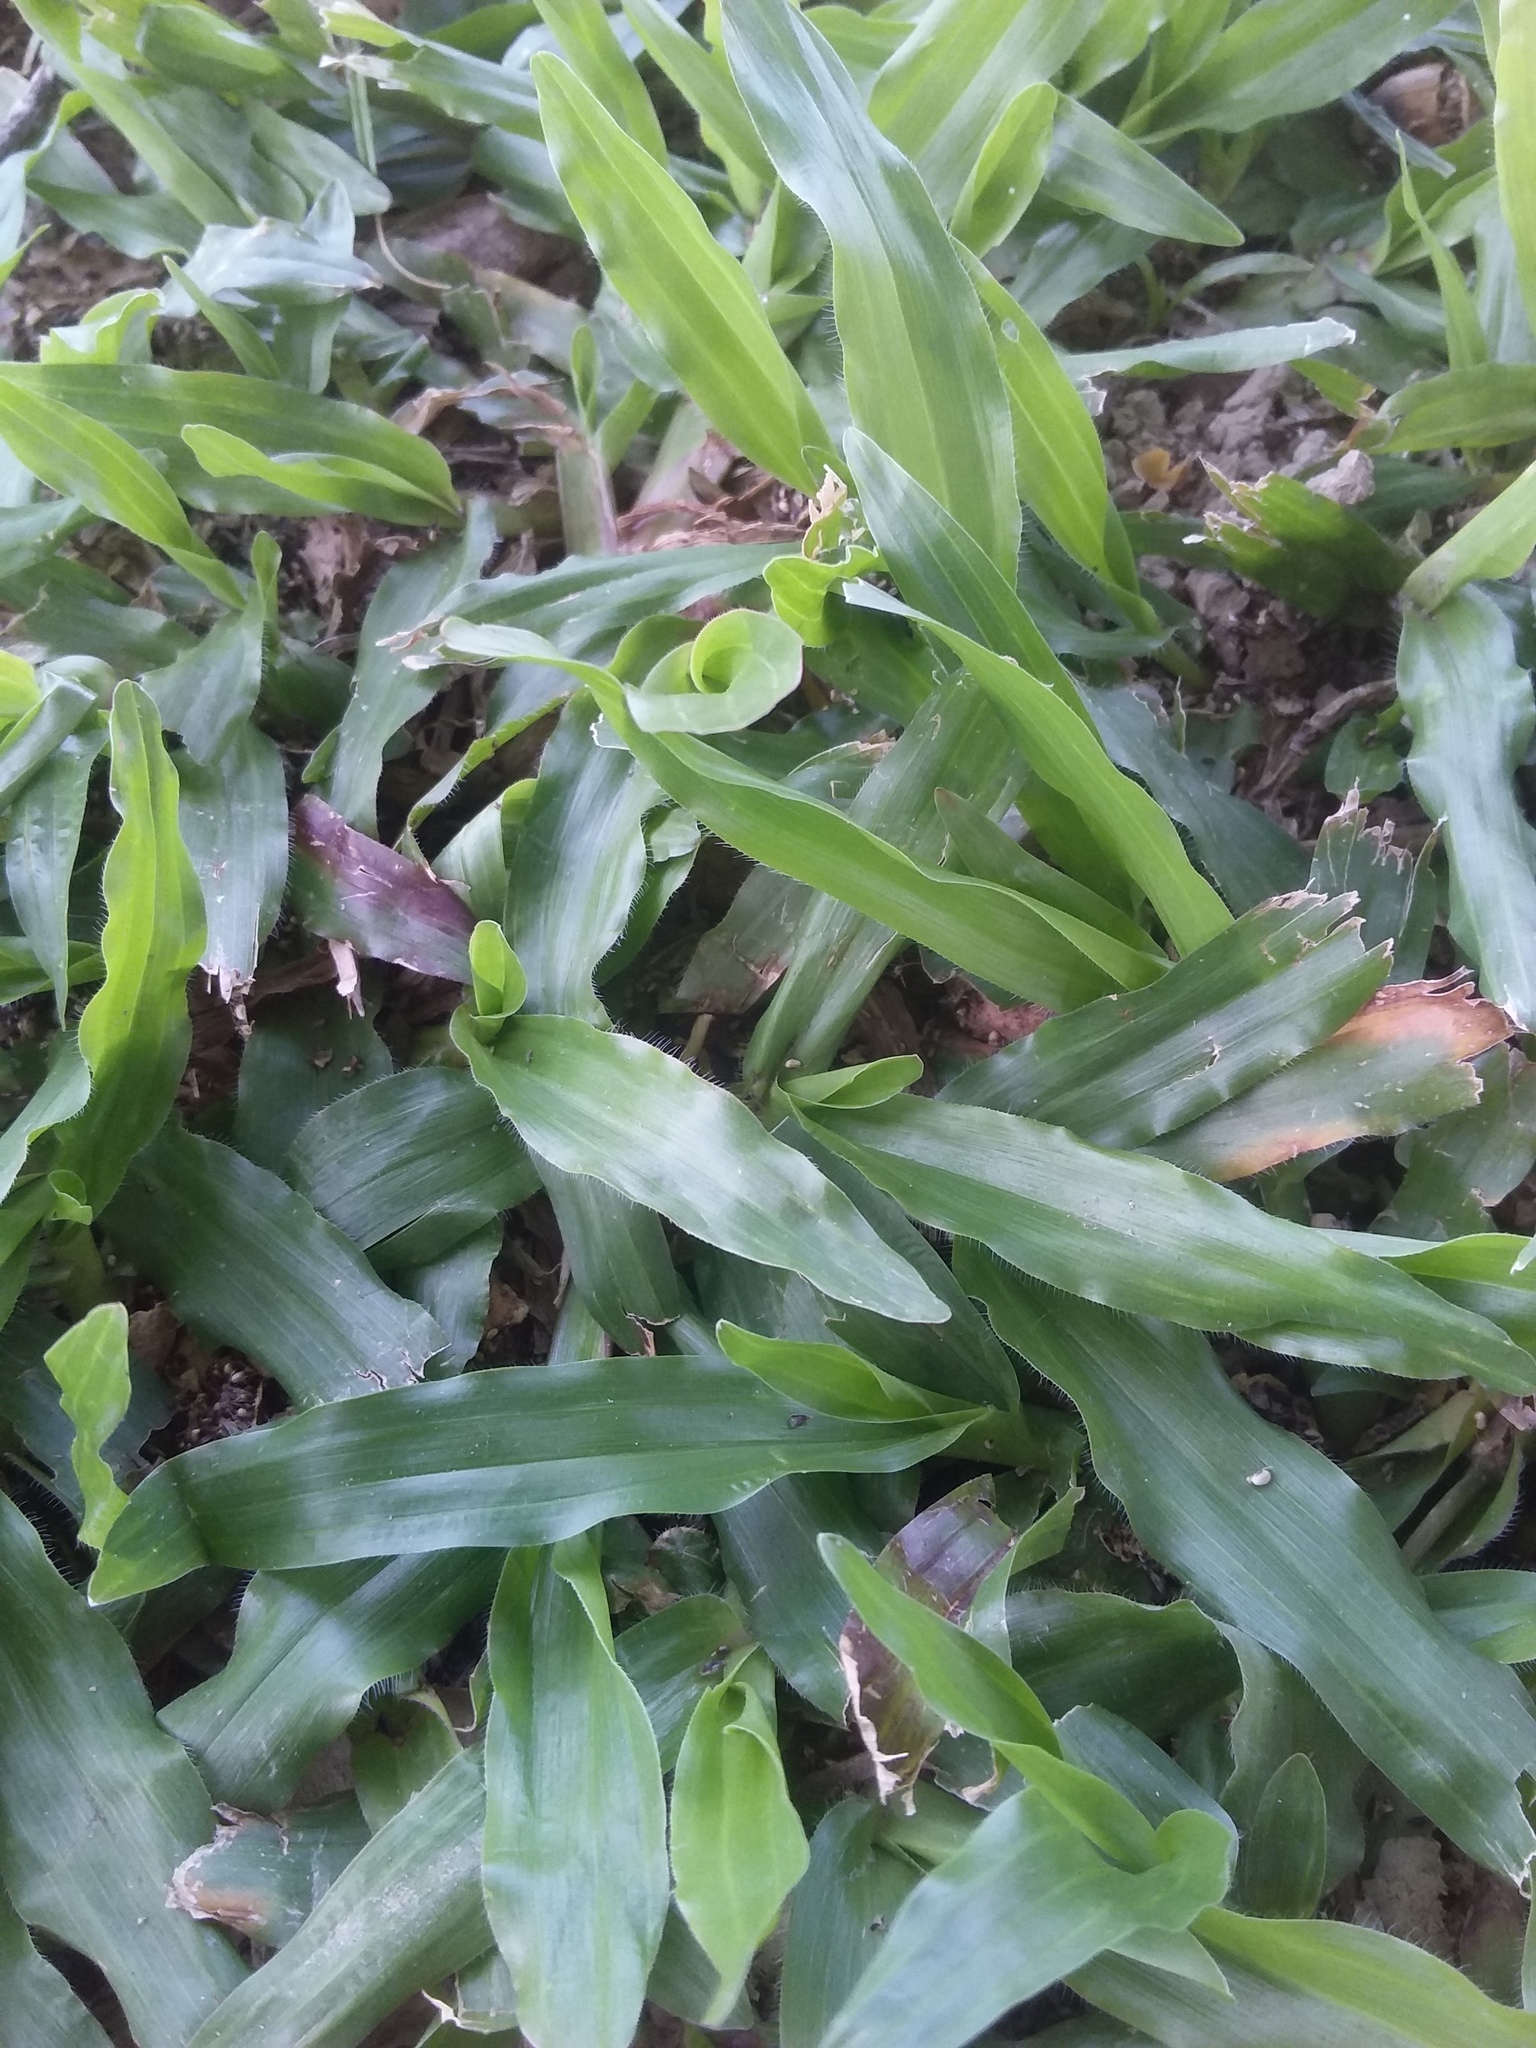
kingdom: Plantae
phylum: Tracheophyta
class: Liliopsida
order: Poales
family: Poaceae
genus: Axonopus
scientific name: Axonopus compressus
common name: American carpet grass
